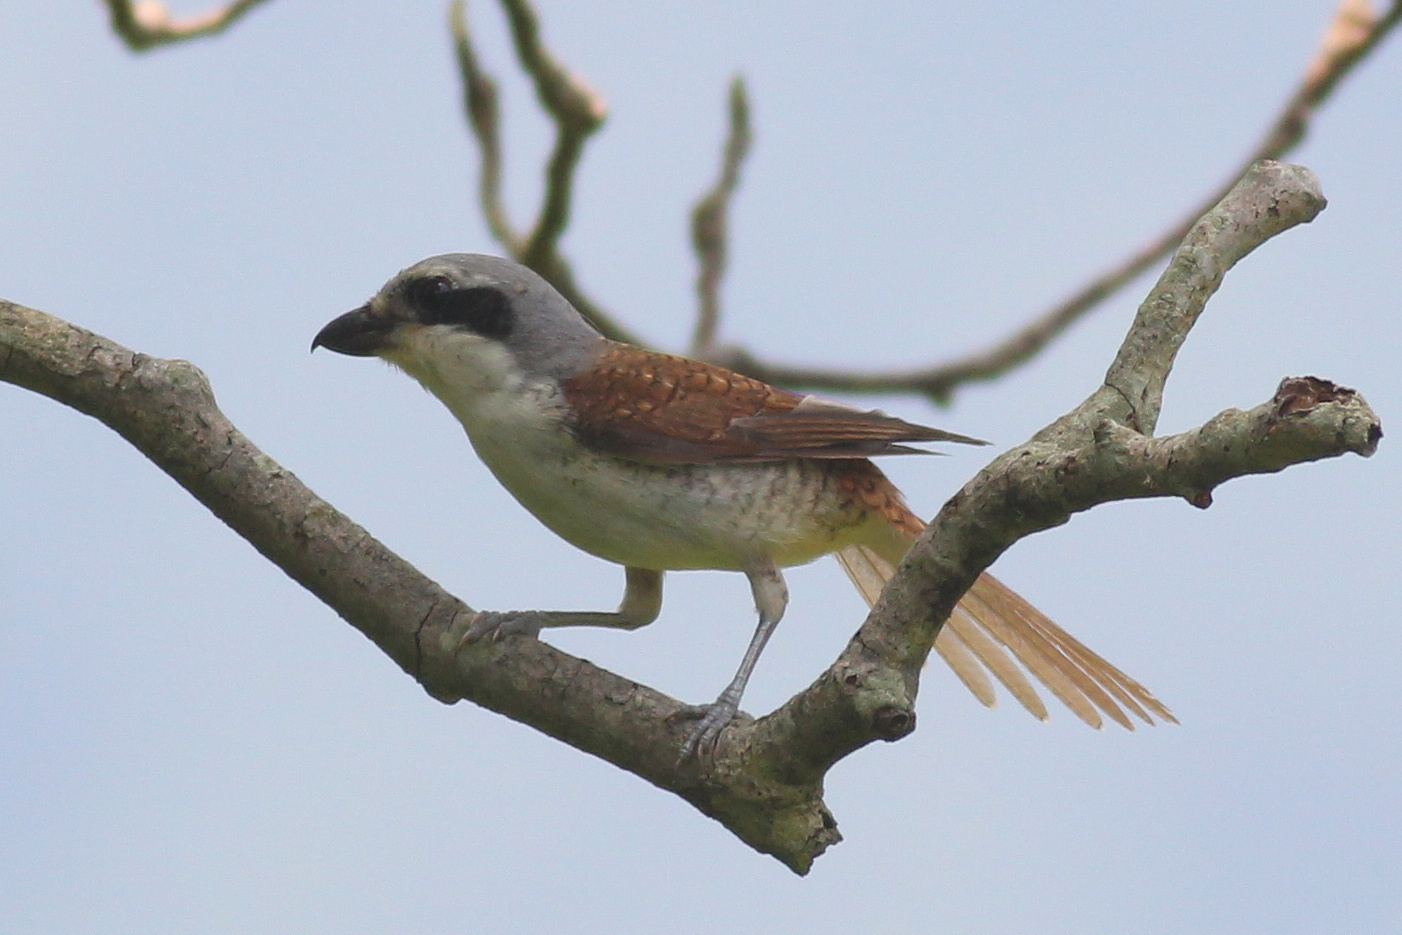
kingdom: Animalia
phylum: Chordata
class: Aves
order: Passeriformes
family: Laniidae
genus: Lanius
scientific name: Lanius tigrinus
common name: Tiger shrike
